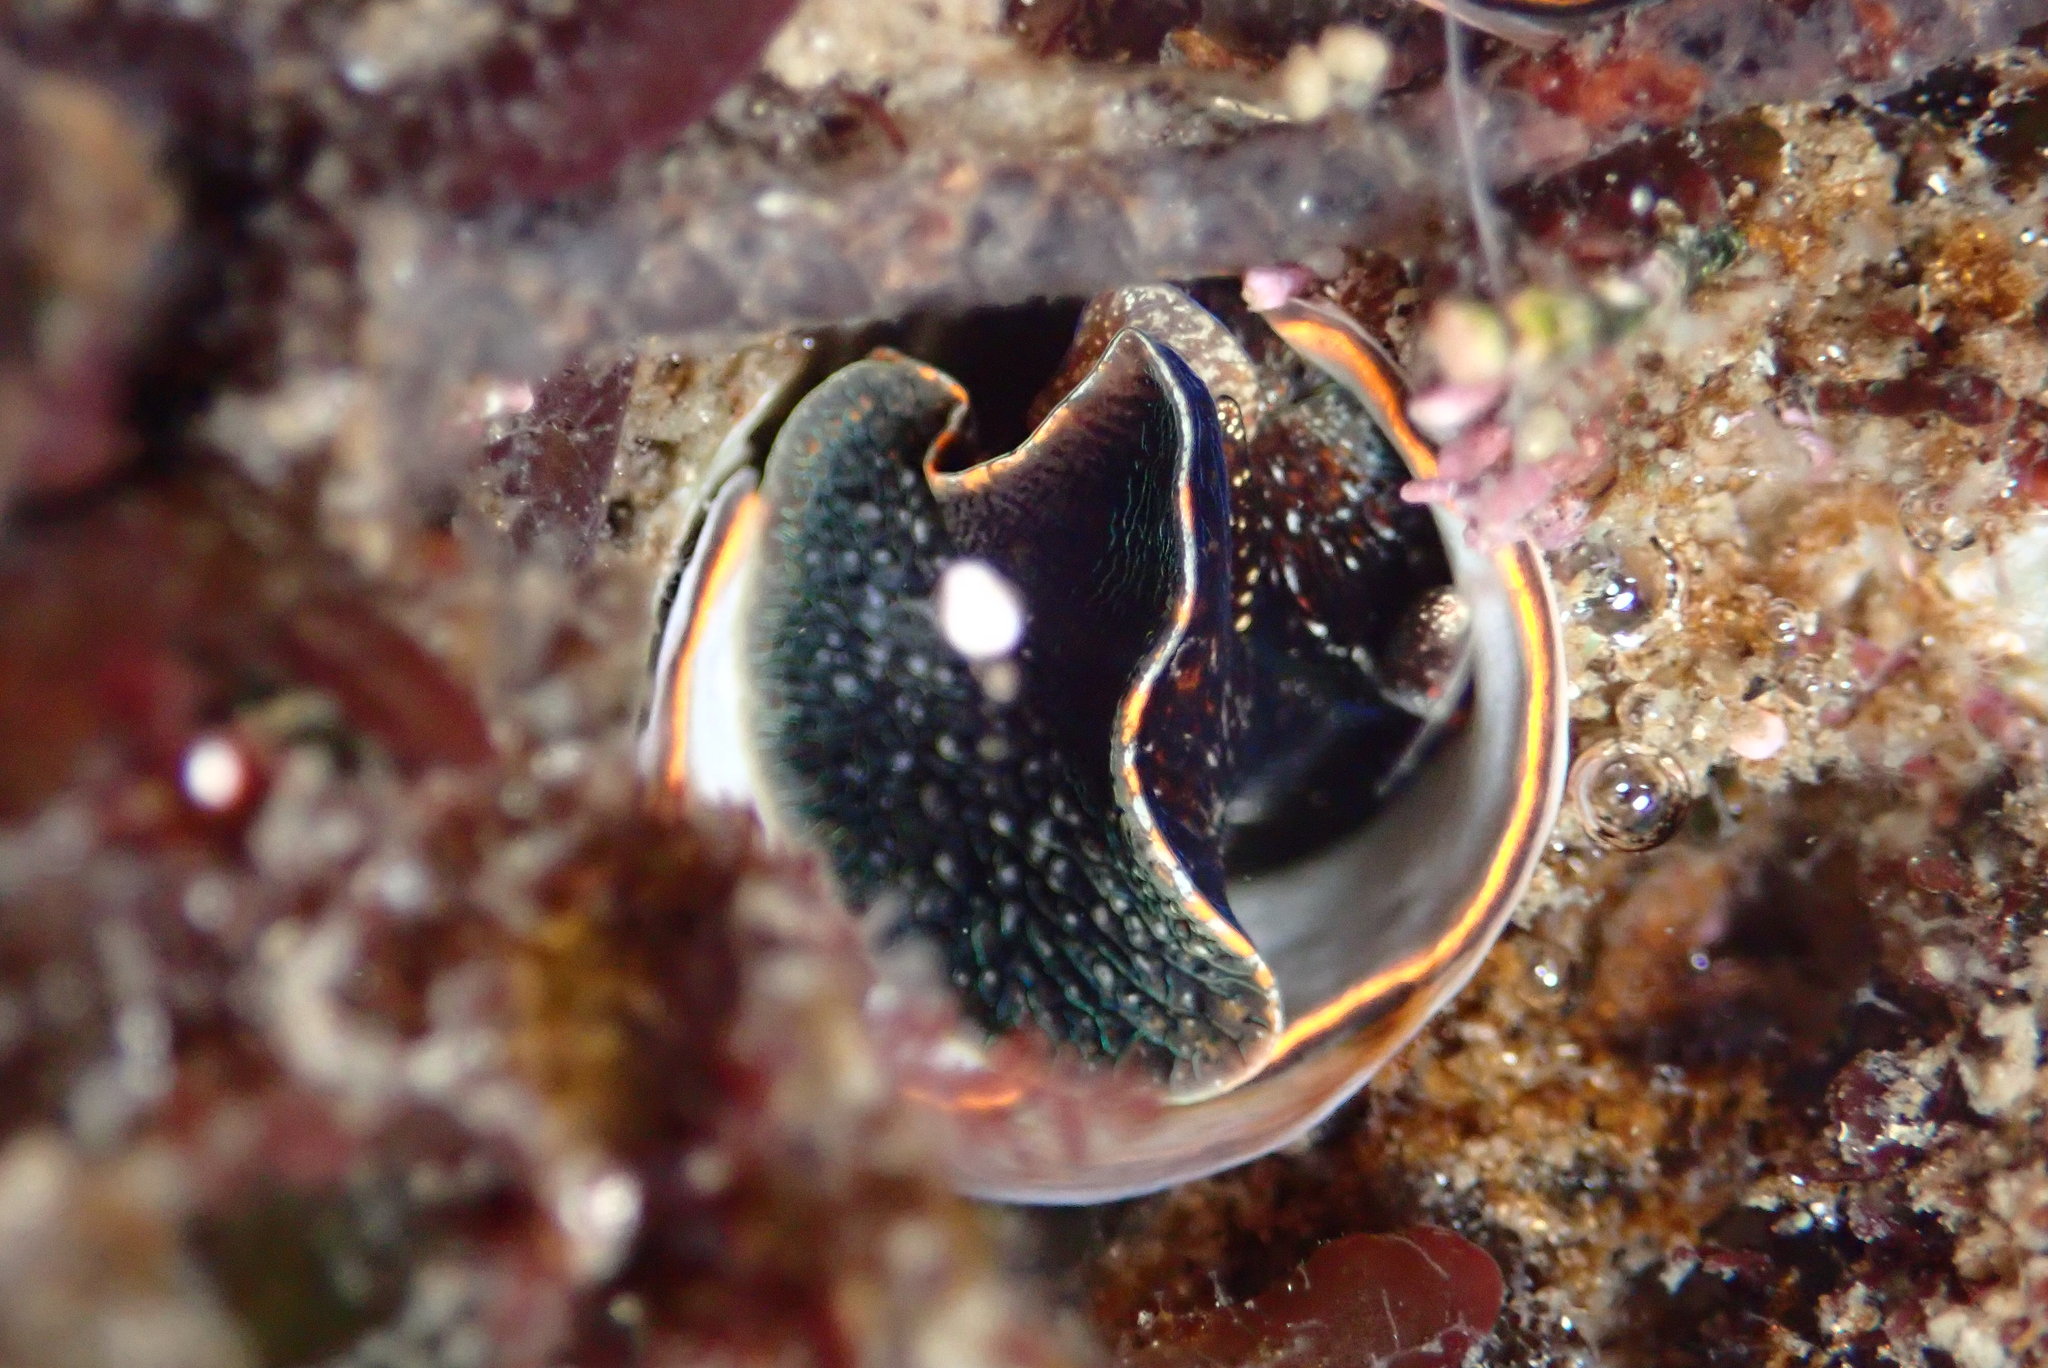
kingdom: Animalia
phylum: Mollusca
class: Gastropoda
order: Littorinimorpha
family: Vermetidae
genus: Thylacodes
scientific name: Thylacodes squamigerus
